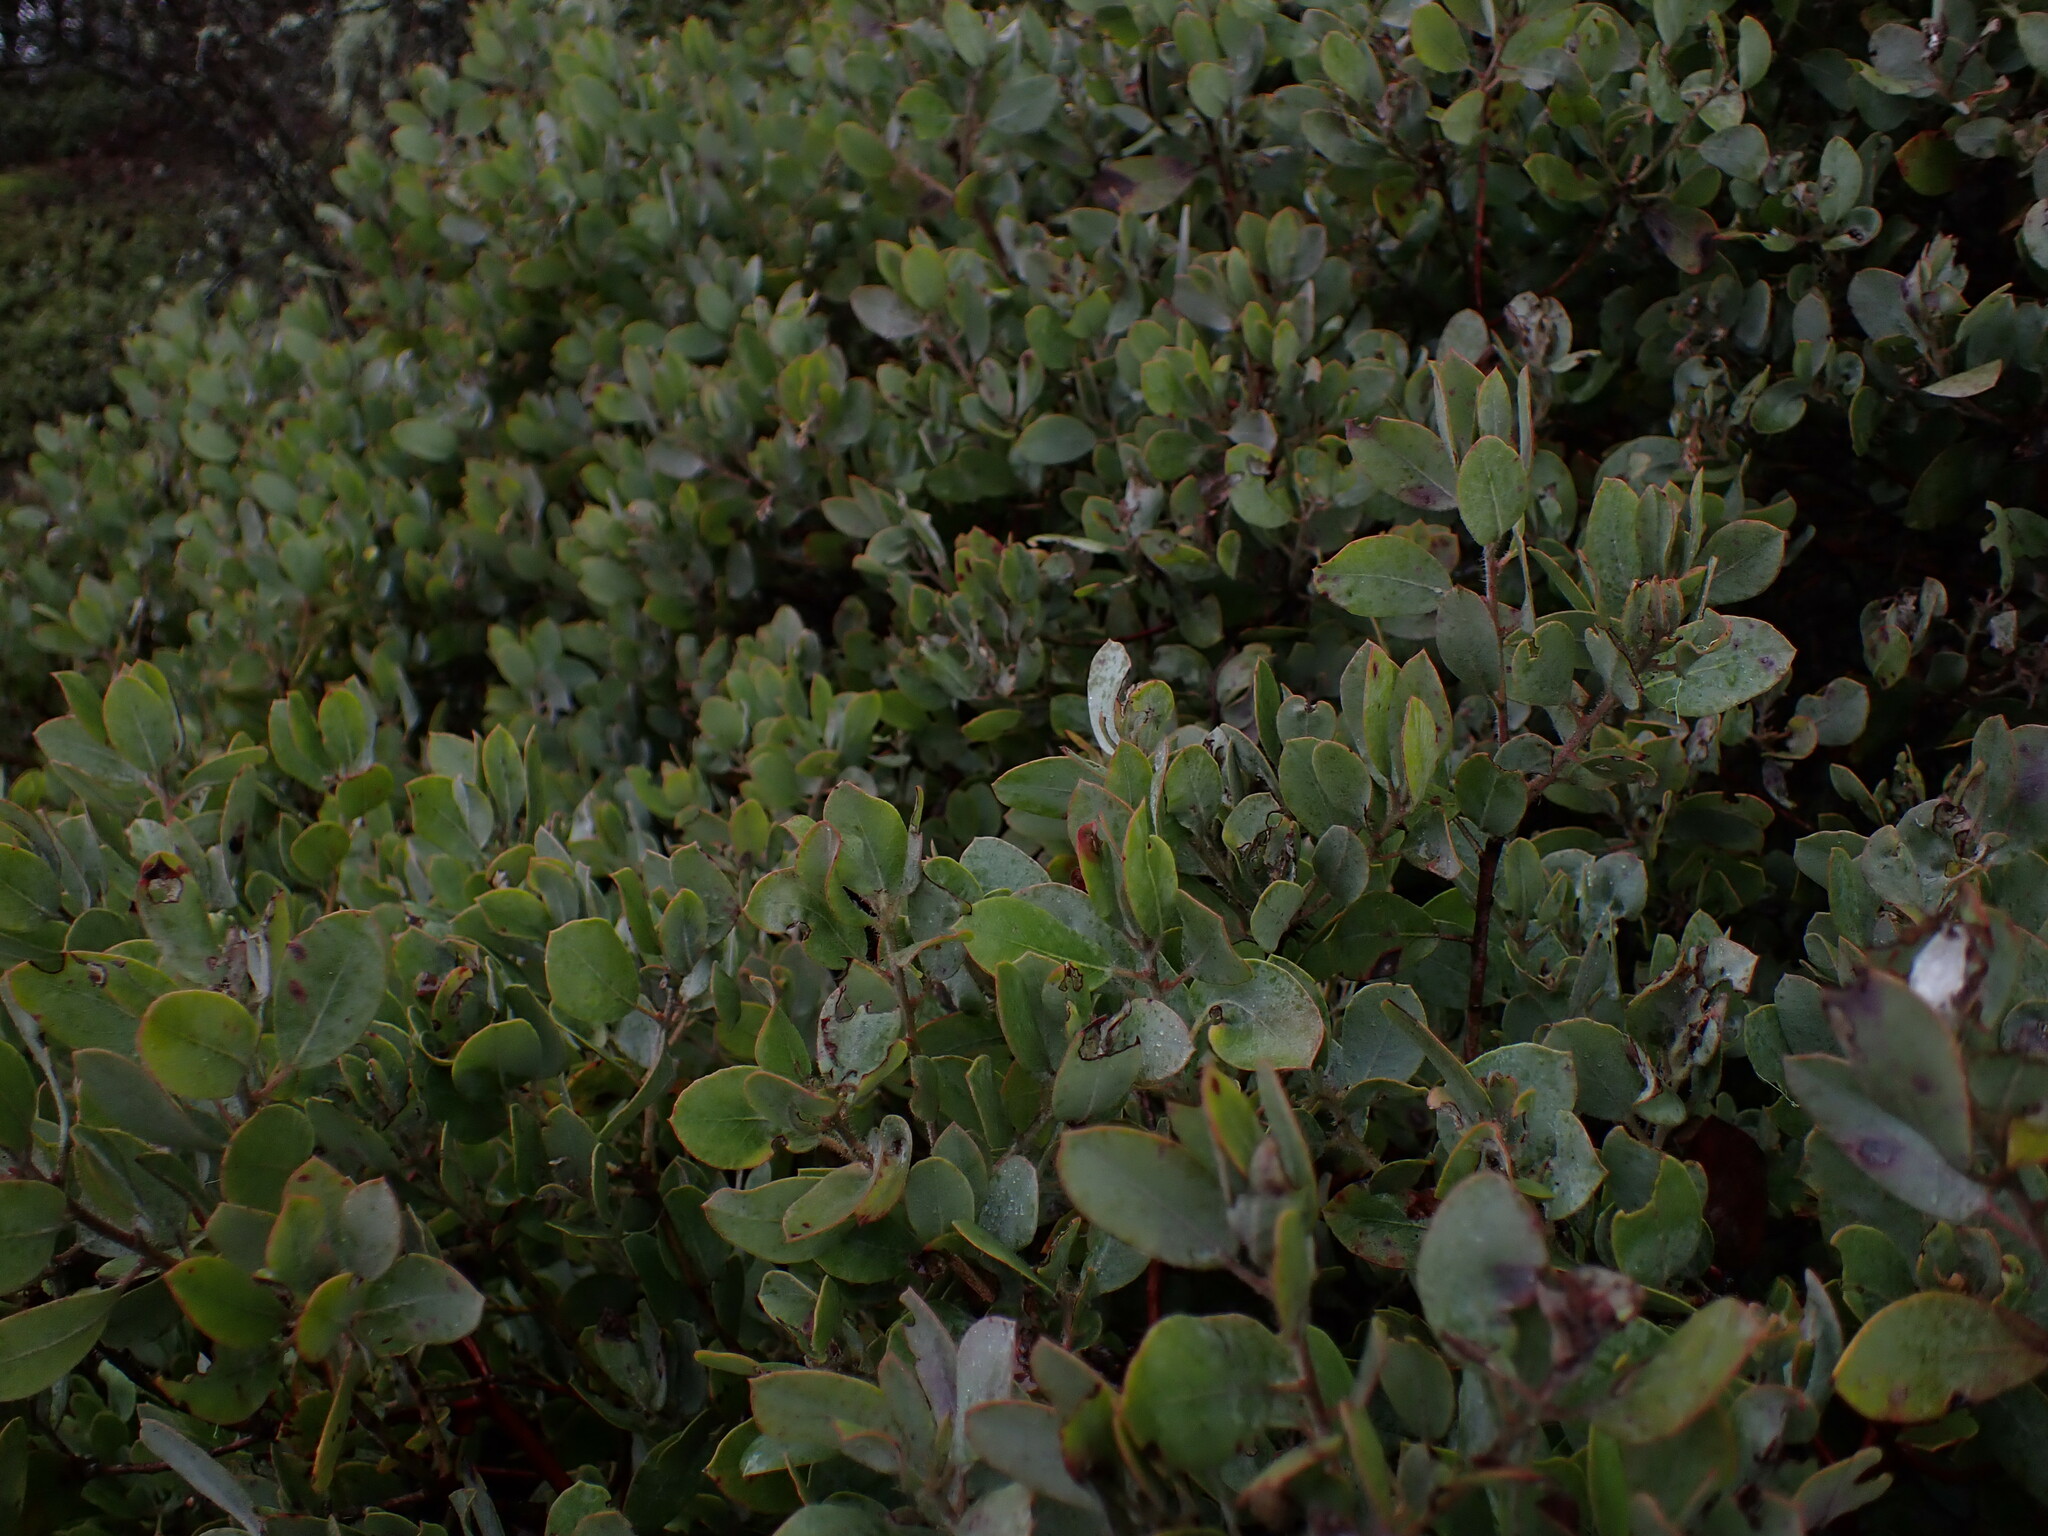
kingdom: Plantae
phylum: Tracheophyta
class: Magnoliopsida
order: Ericales
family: Ericaceae
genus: Arctostaphylos
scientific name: Arctostaphylos columbiana
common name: Bristly bearberry
